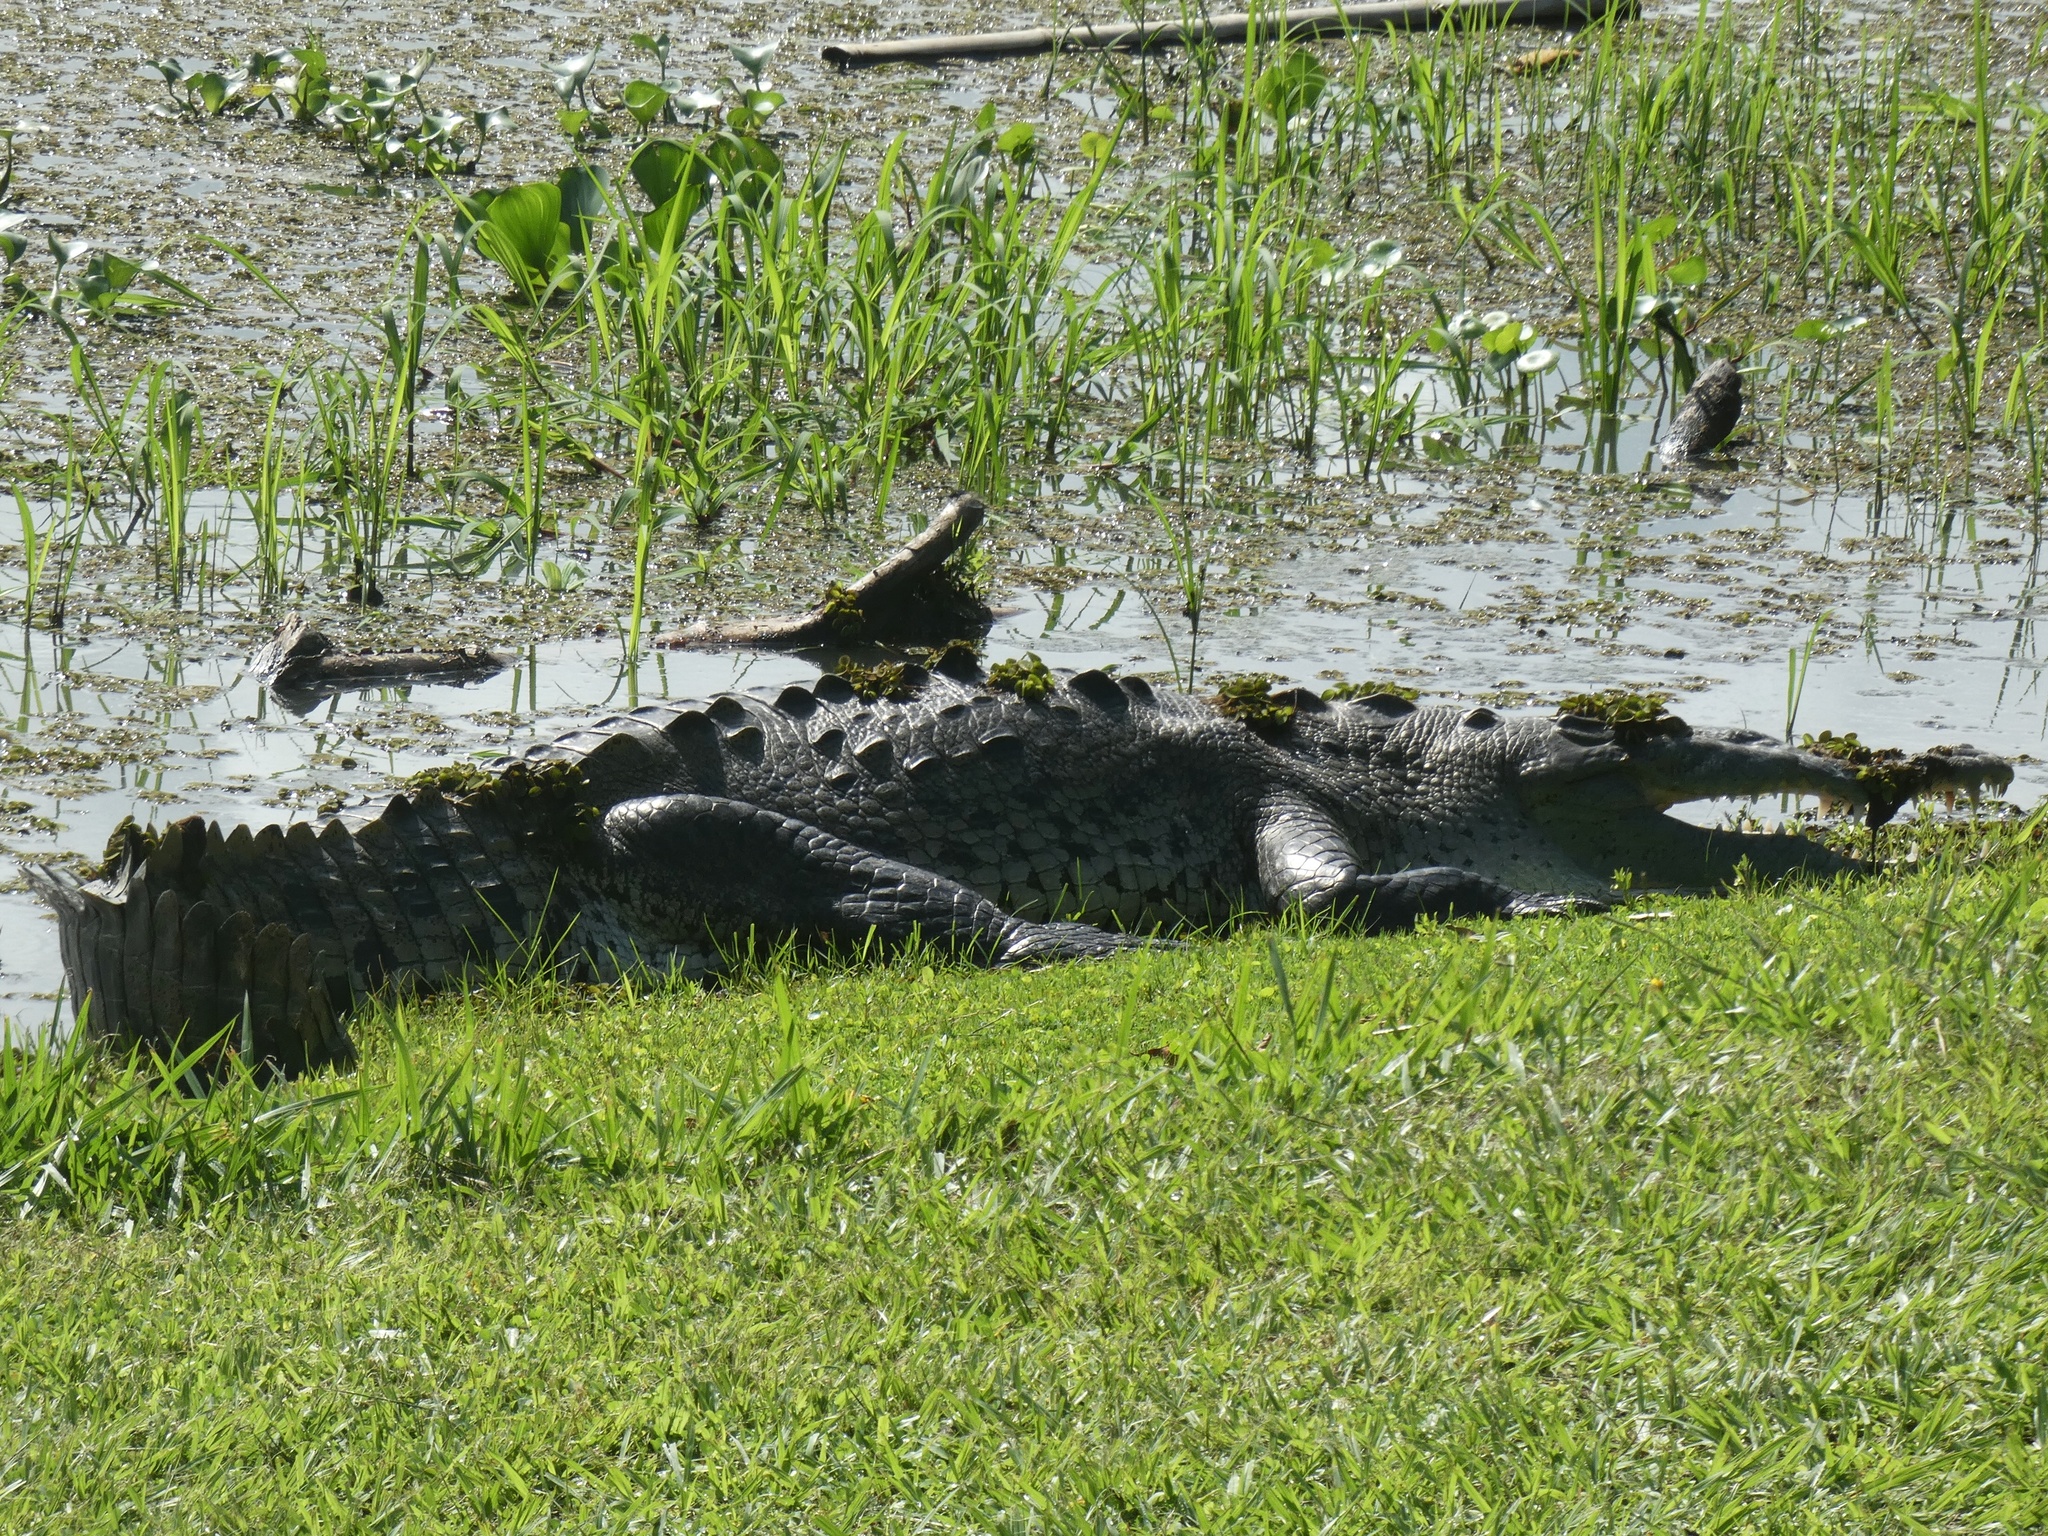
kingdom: Animalia
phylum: Chordata
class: Crocodylia
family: Crocodylidae
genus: Crocodylus
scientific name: Crocodylus acutus
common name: American crocodile
